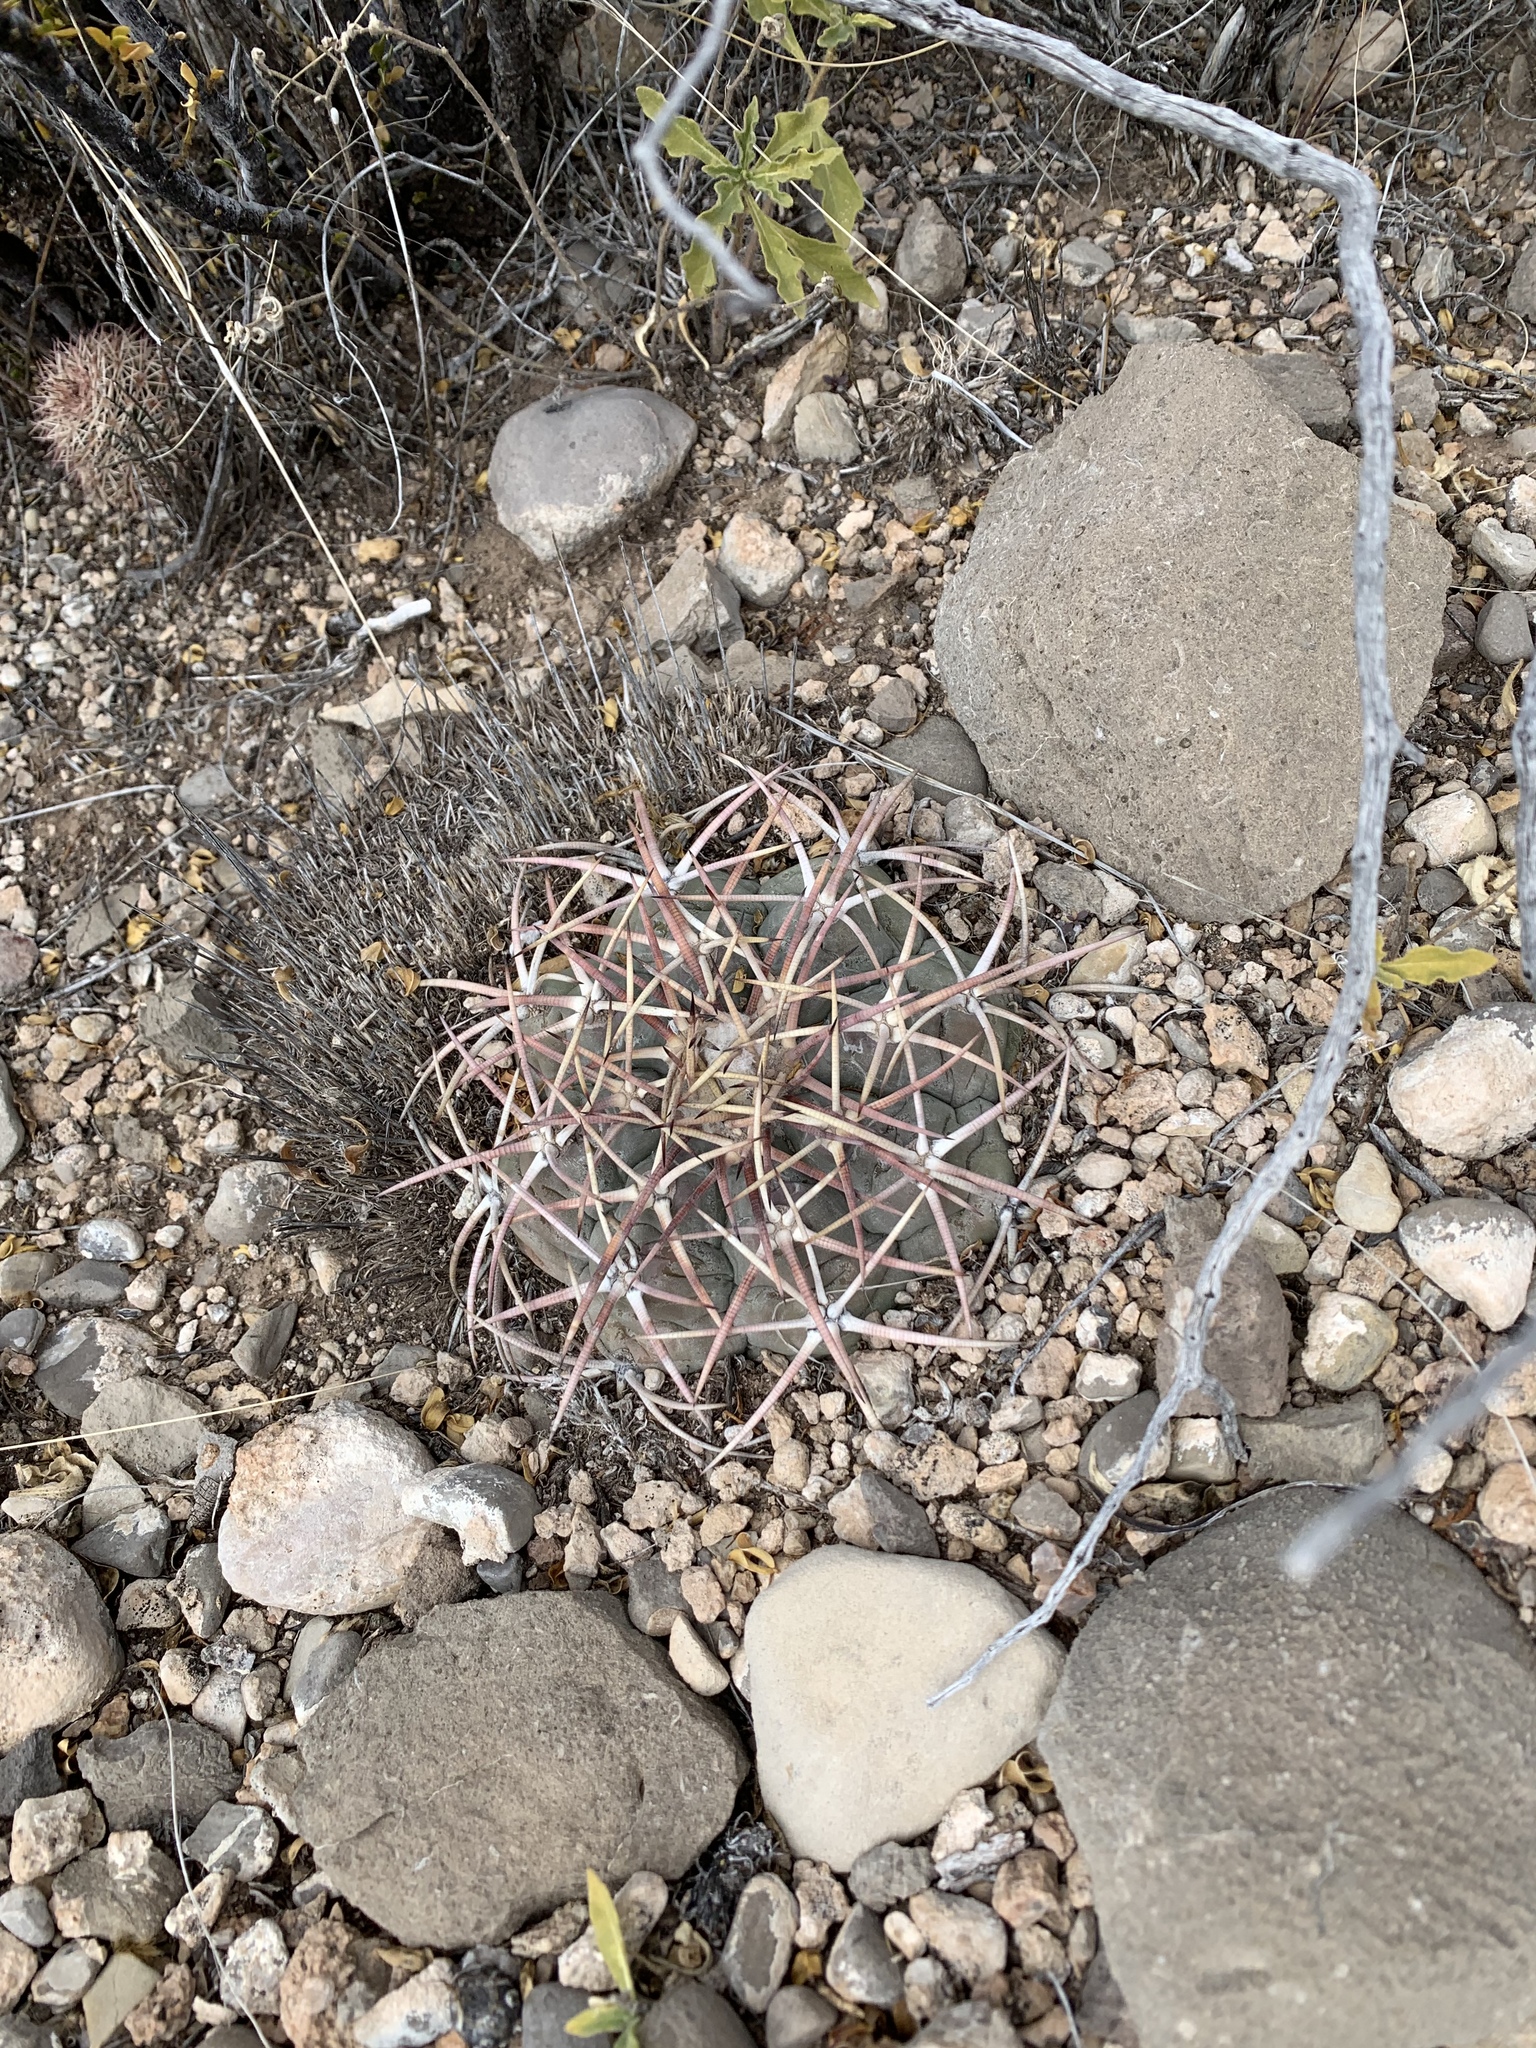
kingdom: Plantae
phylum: Tracheophyta
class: Magnoliopsida
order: Caryophyllales
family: Cactaceae
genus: Echinocactus
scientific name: Echinocactus horizonthalonius
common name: Devilshead
